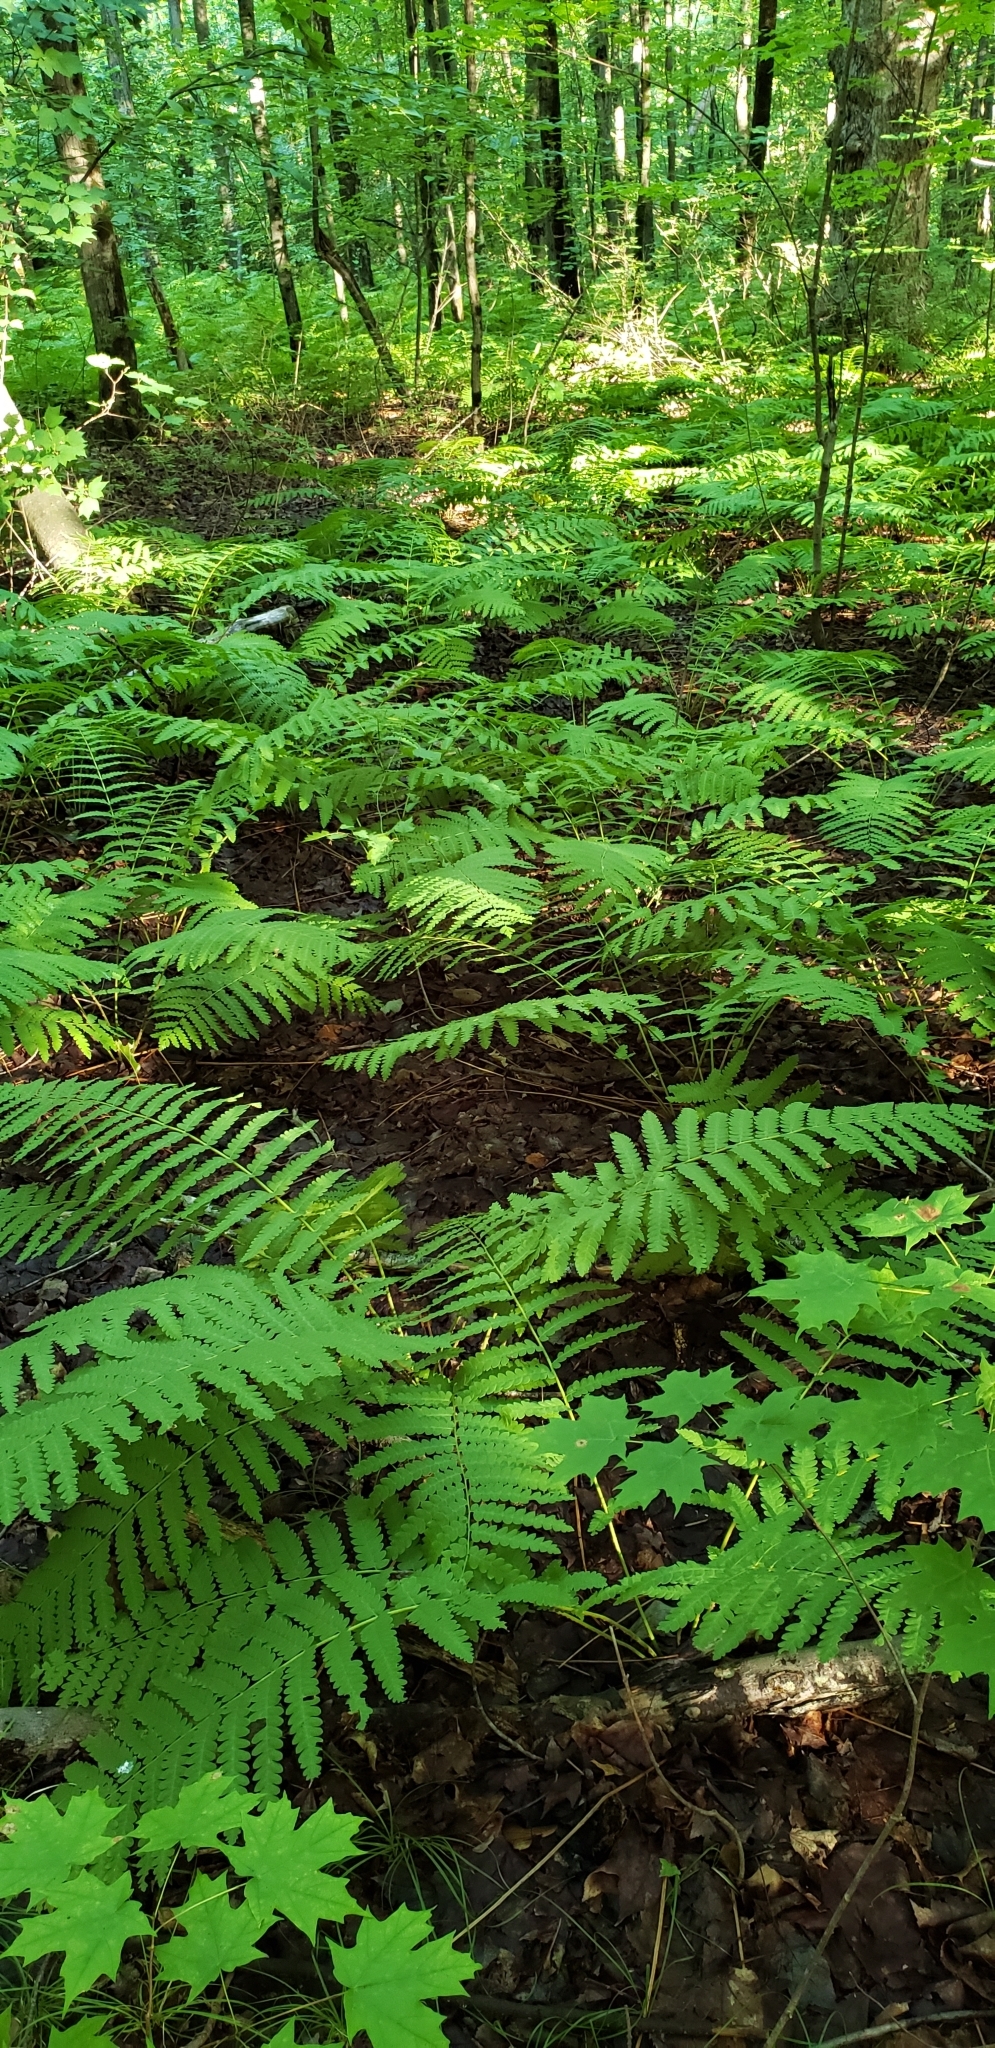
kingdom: Plantae
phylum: Tracheophyta
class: Polypodiopsida
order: Osmundales
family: Osmundaceae
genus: Claytosmunda
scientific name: Claytosmunda claytoniana
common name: Clayton's fern
